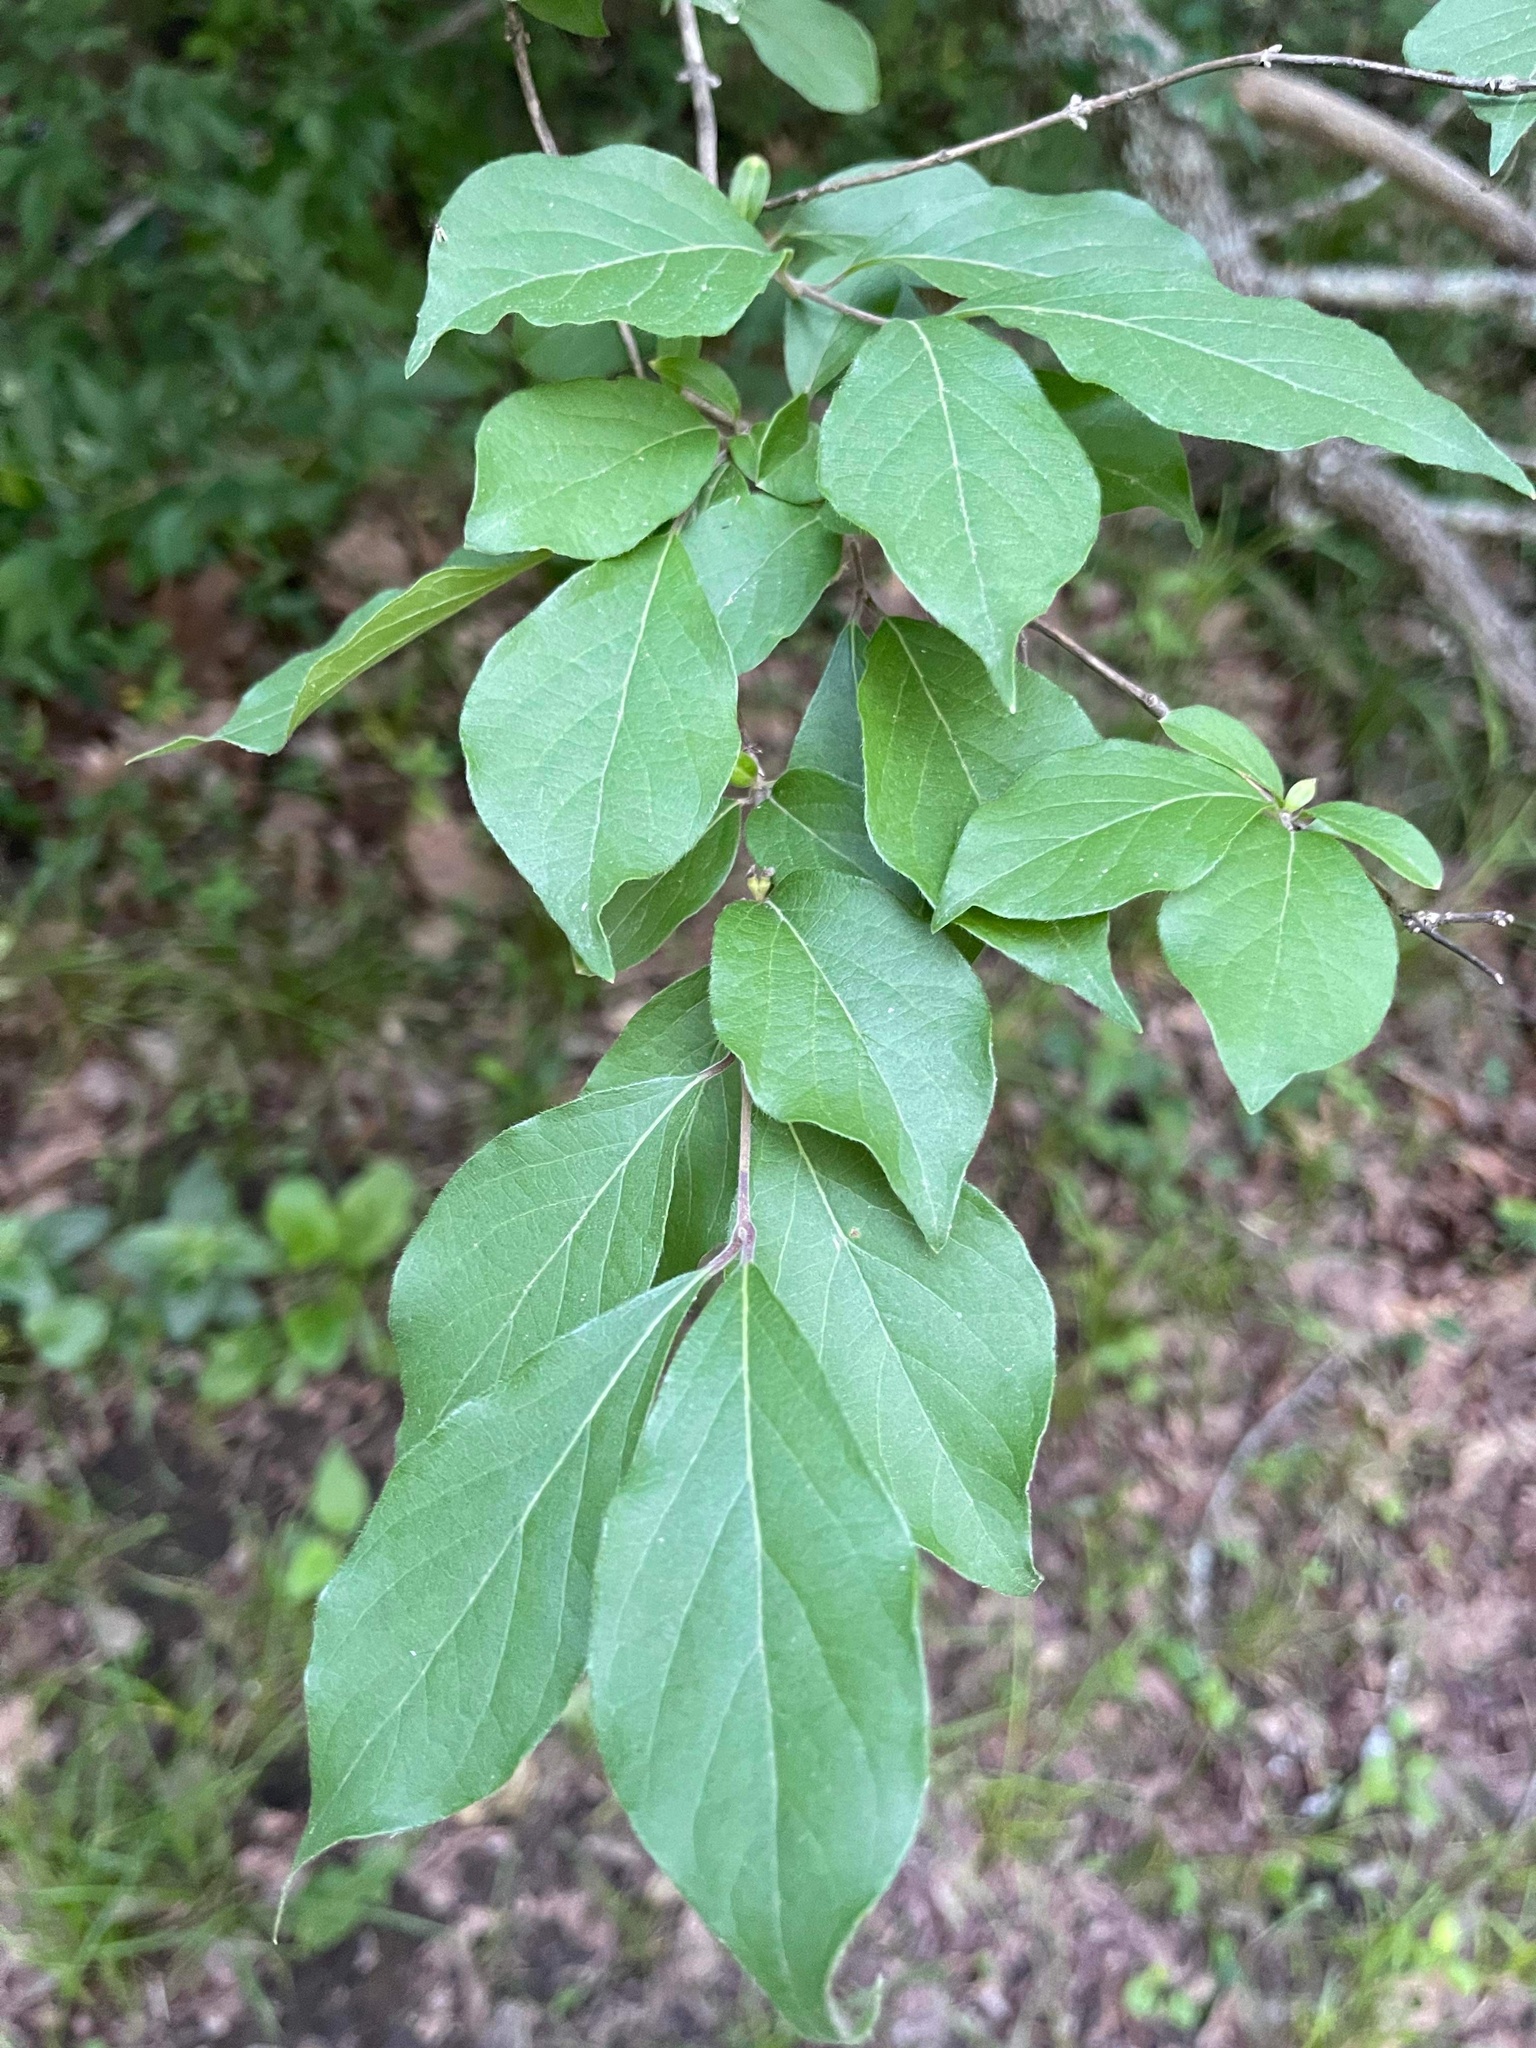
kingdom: Plantae
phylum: Tracheophyta
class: Magnoliopsida
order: Dipsacales
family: Caprifoliaceae
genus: Lonicera
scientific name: Lonicera maackii
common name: Amur honeysuckle
